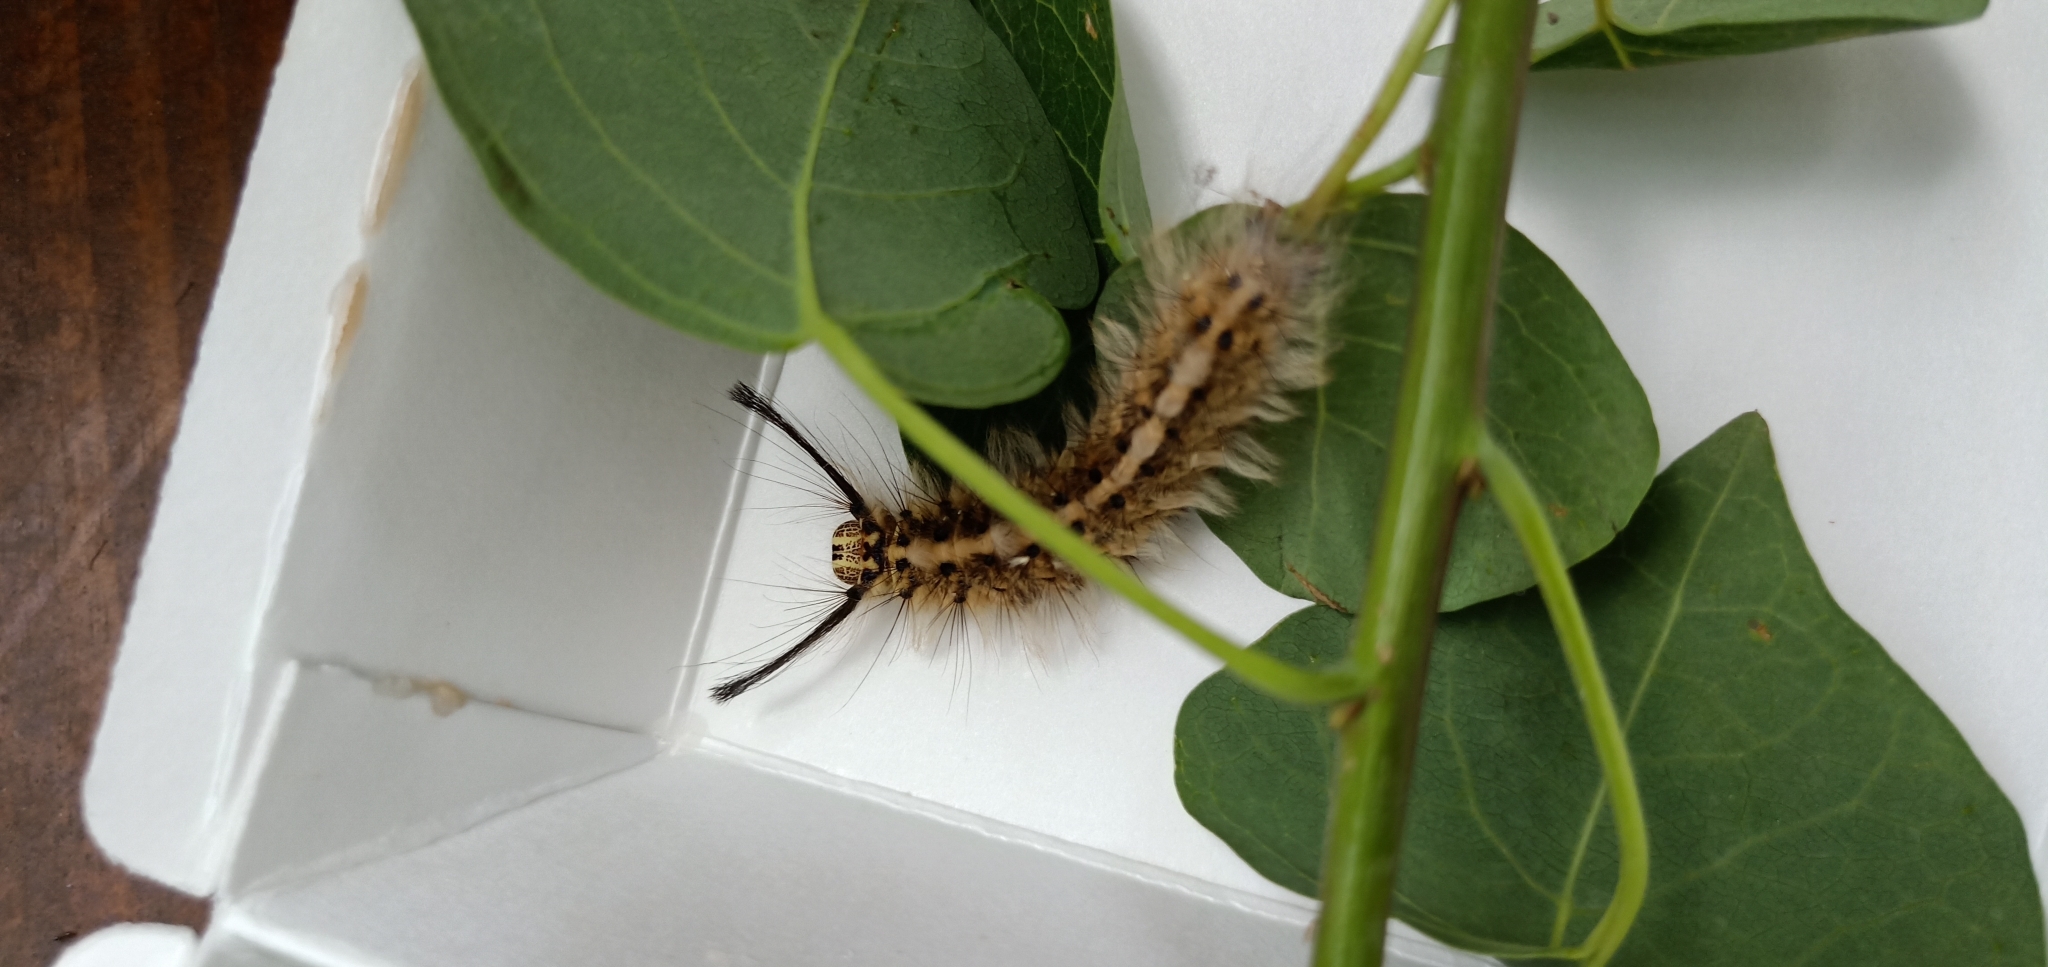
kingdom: Animalia
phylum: Arthropoda
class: Insecta
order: Lepidoptera
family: Lasiocampidae
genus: Trabala
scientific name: Trabala vishnou
